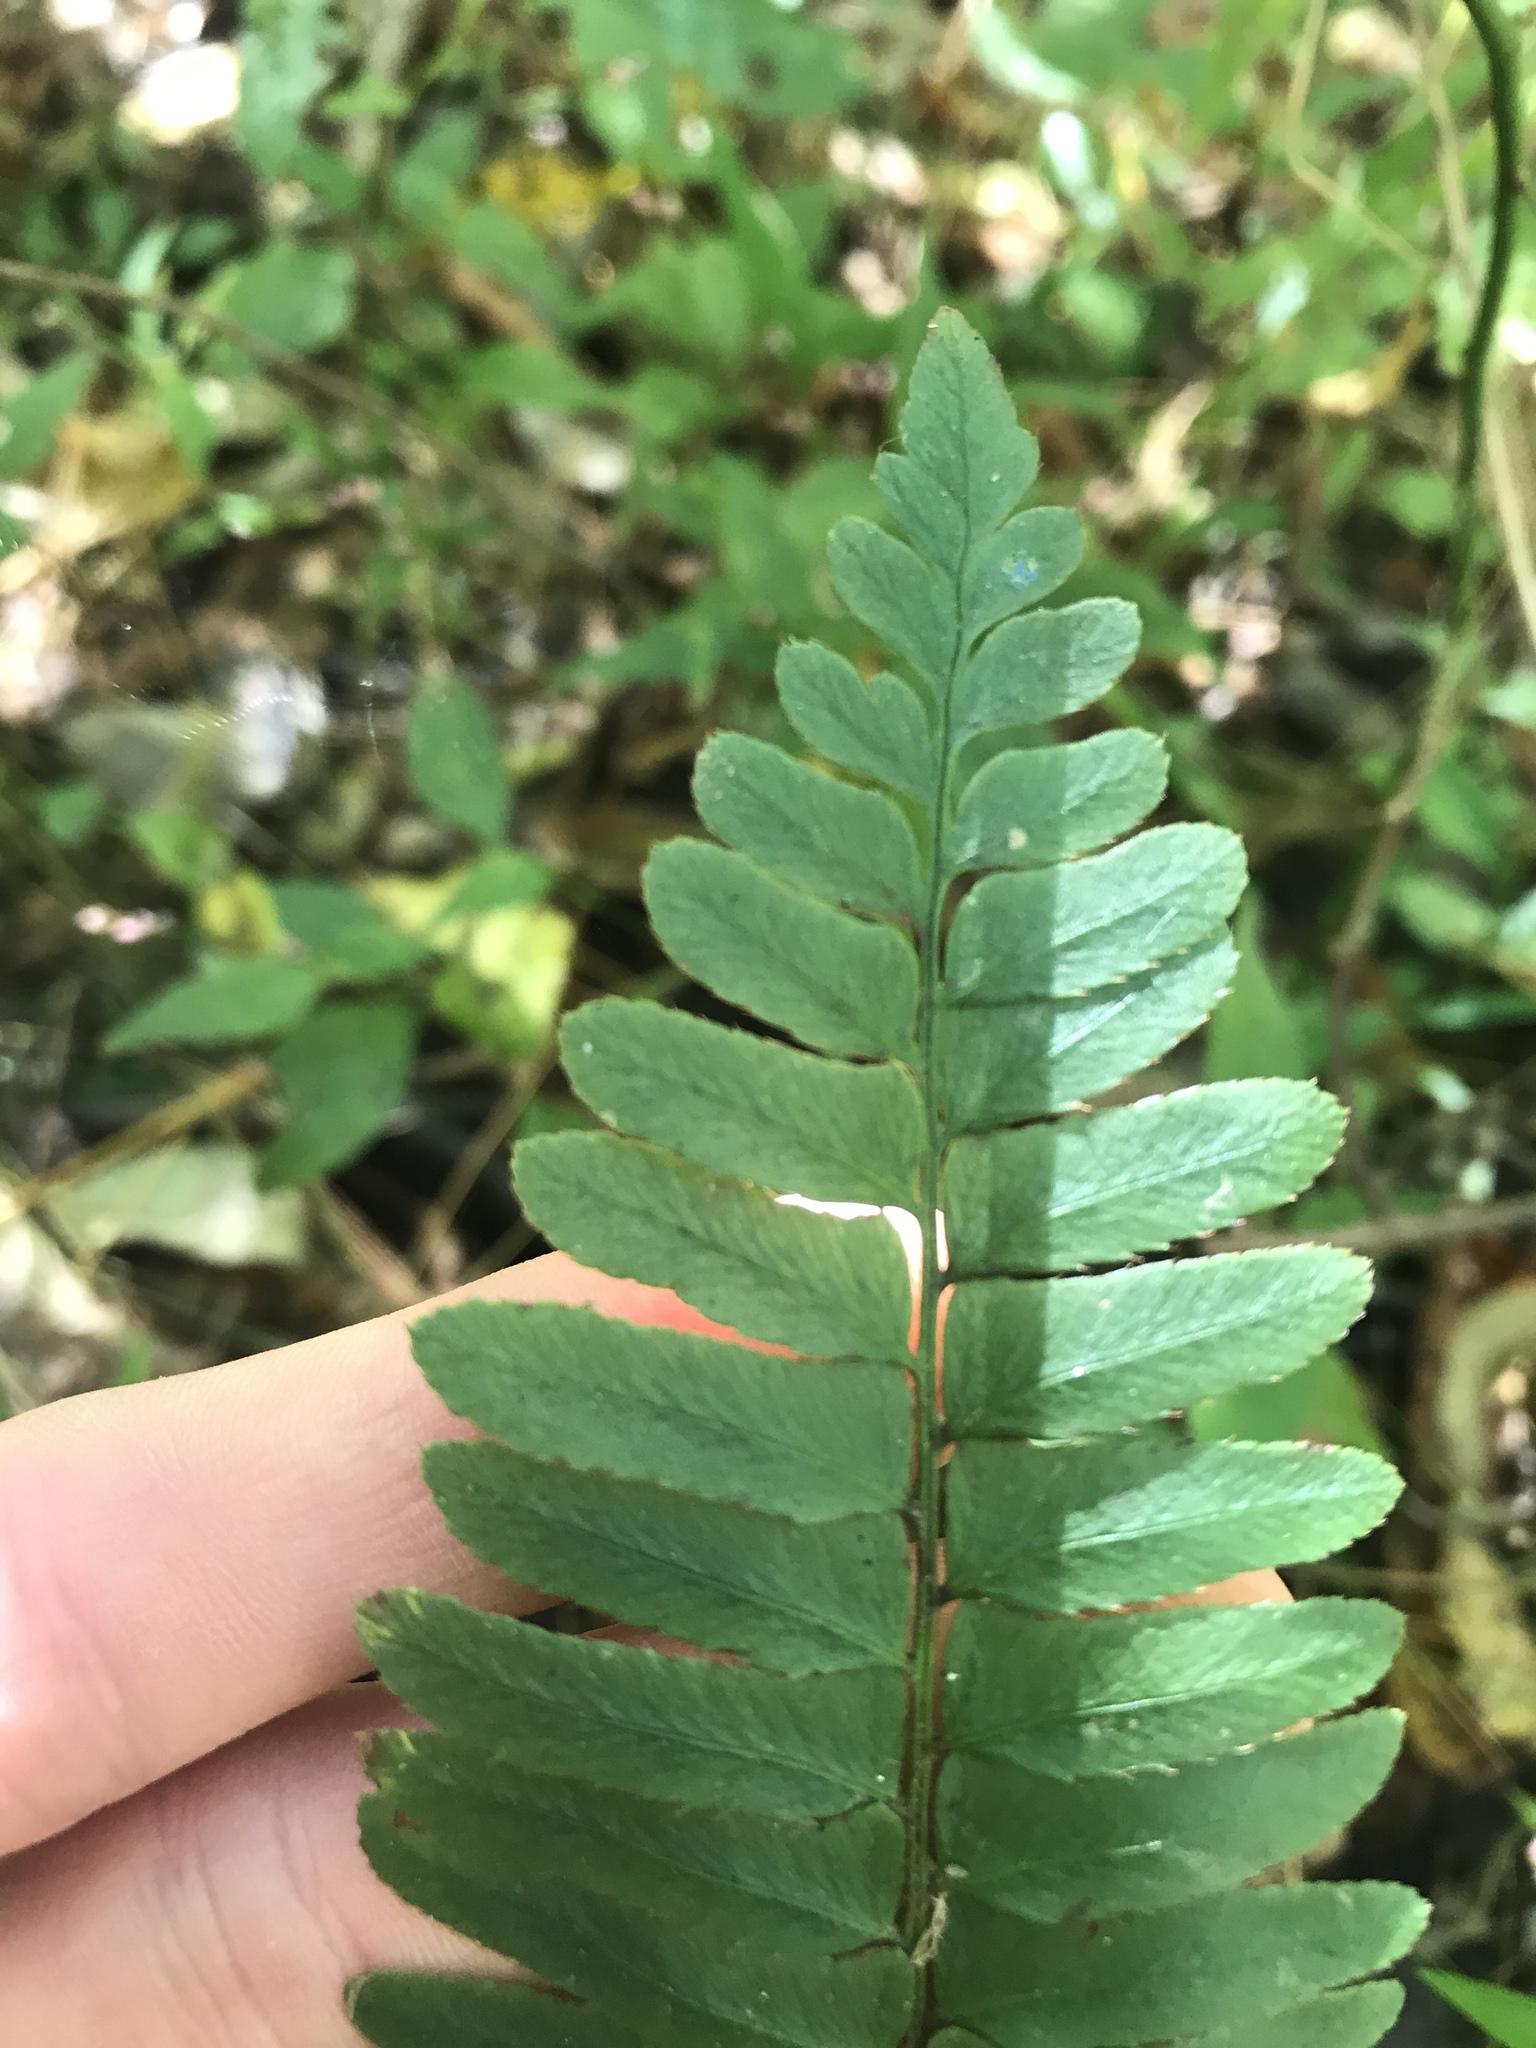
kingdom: Plantae
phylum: Tracheophyta
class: Polypodiopsida
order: Polypodiales
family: Dryopteridaceae
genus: Polystichum
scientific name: Polystichum acrostichoides
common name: Christmas fern
